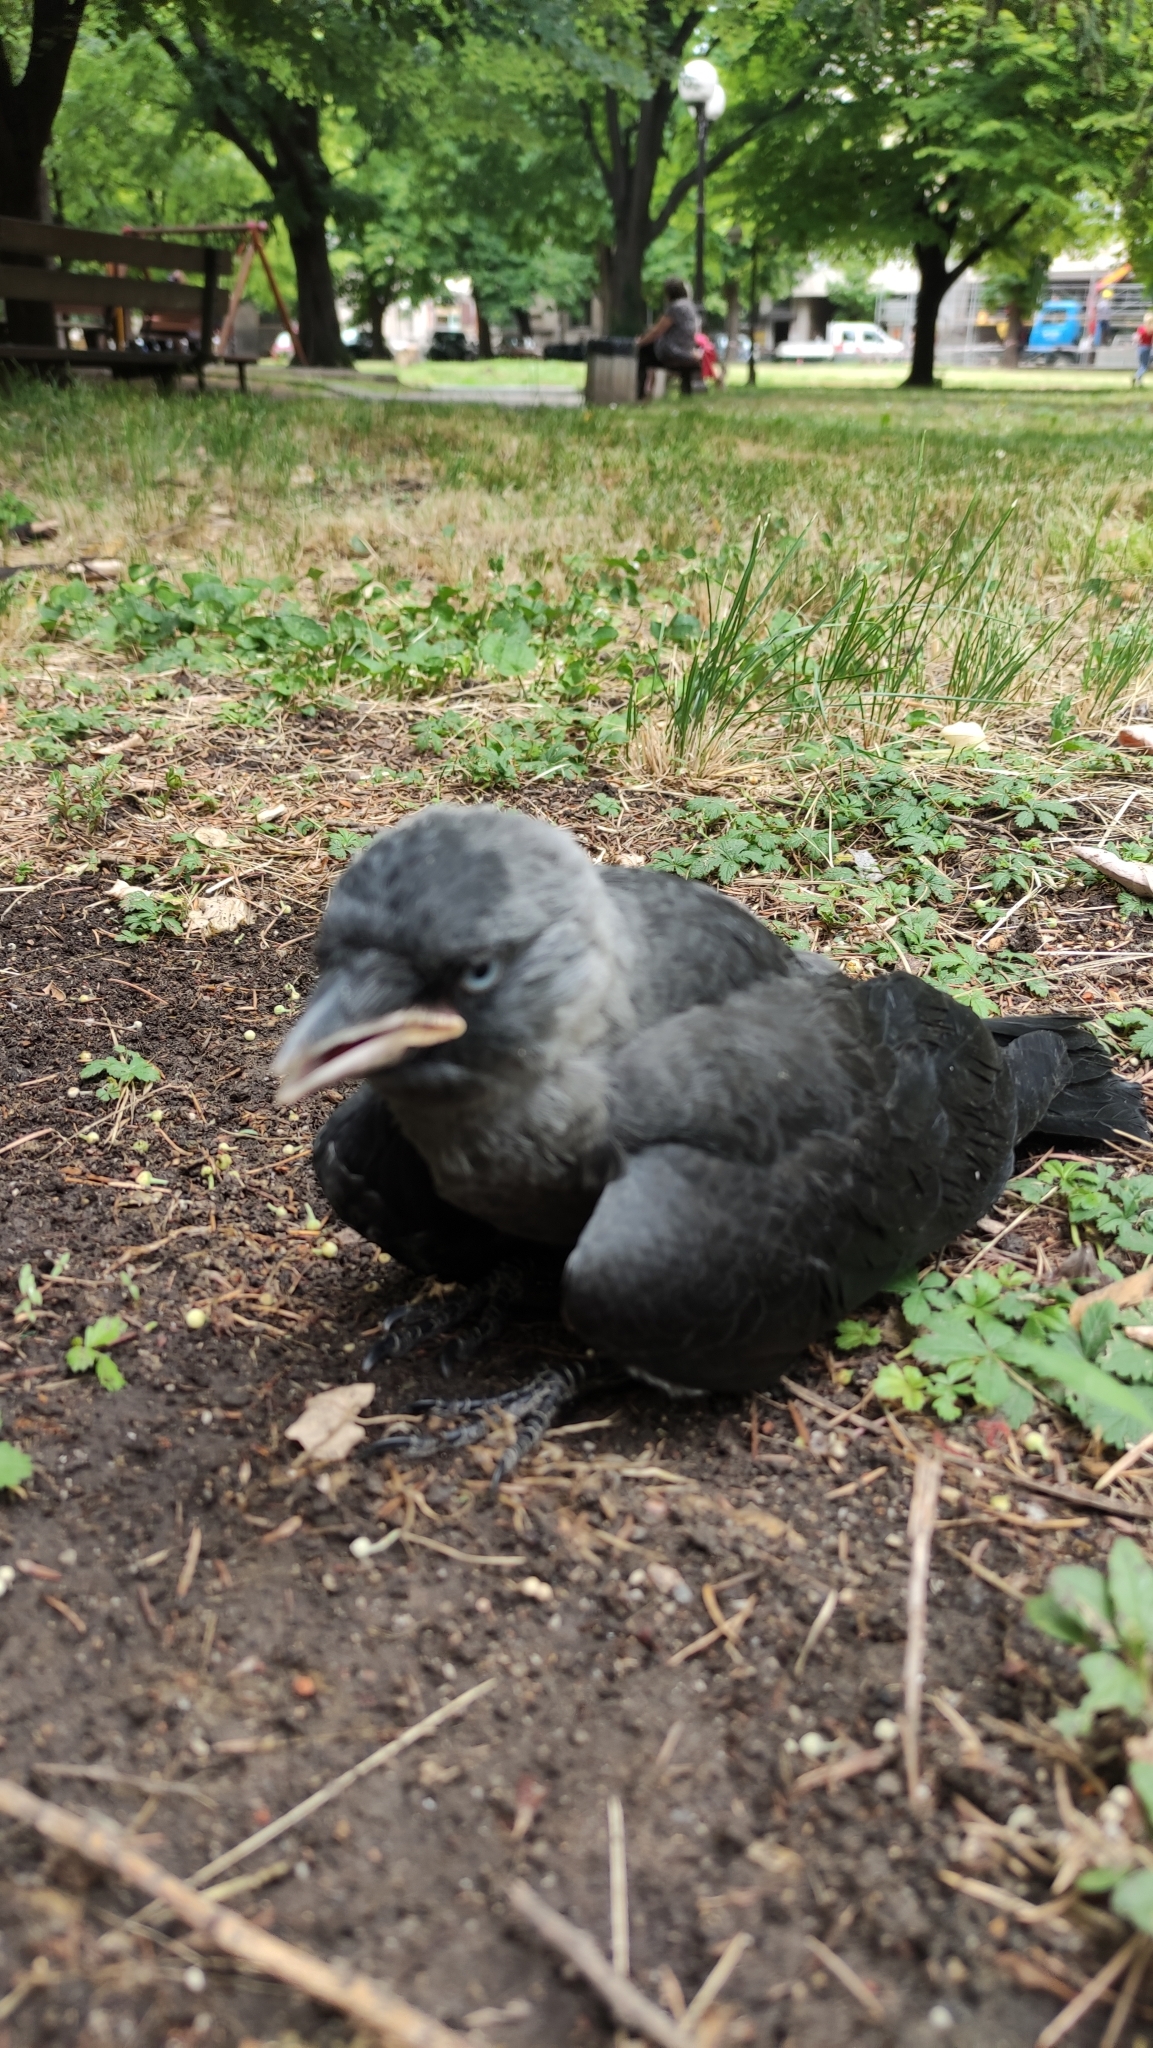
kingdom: Animalia
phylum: Chordata
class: Aves
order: Passeriformes
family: Corvidae
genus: Coloeus
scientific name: Coloeus monedula
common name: Western jackdaw
